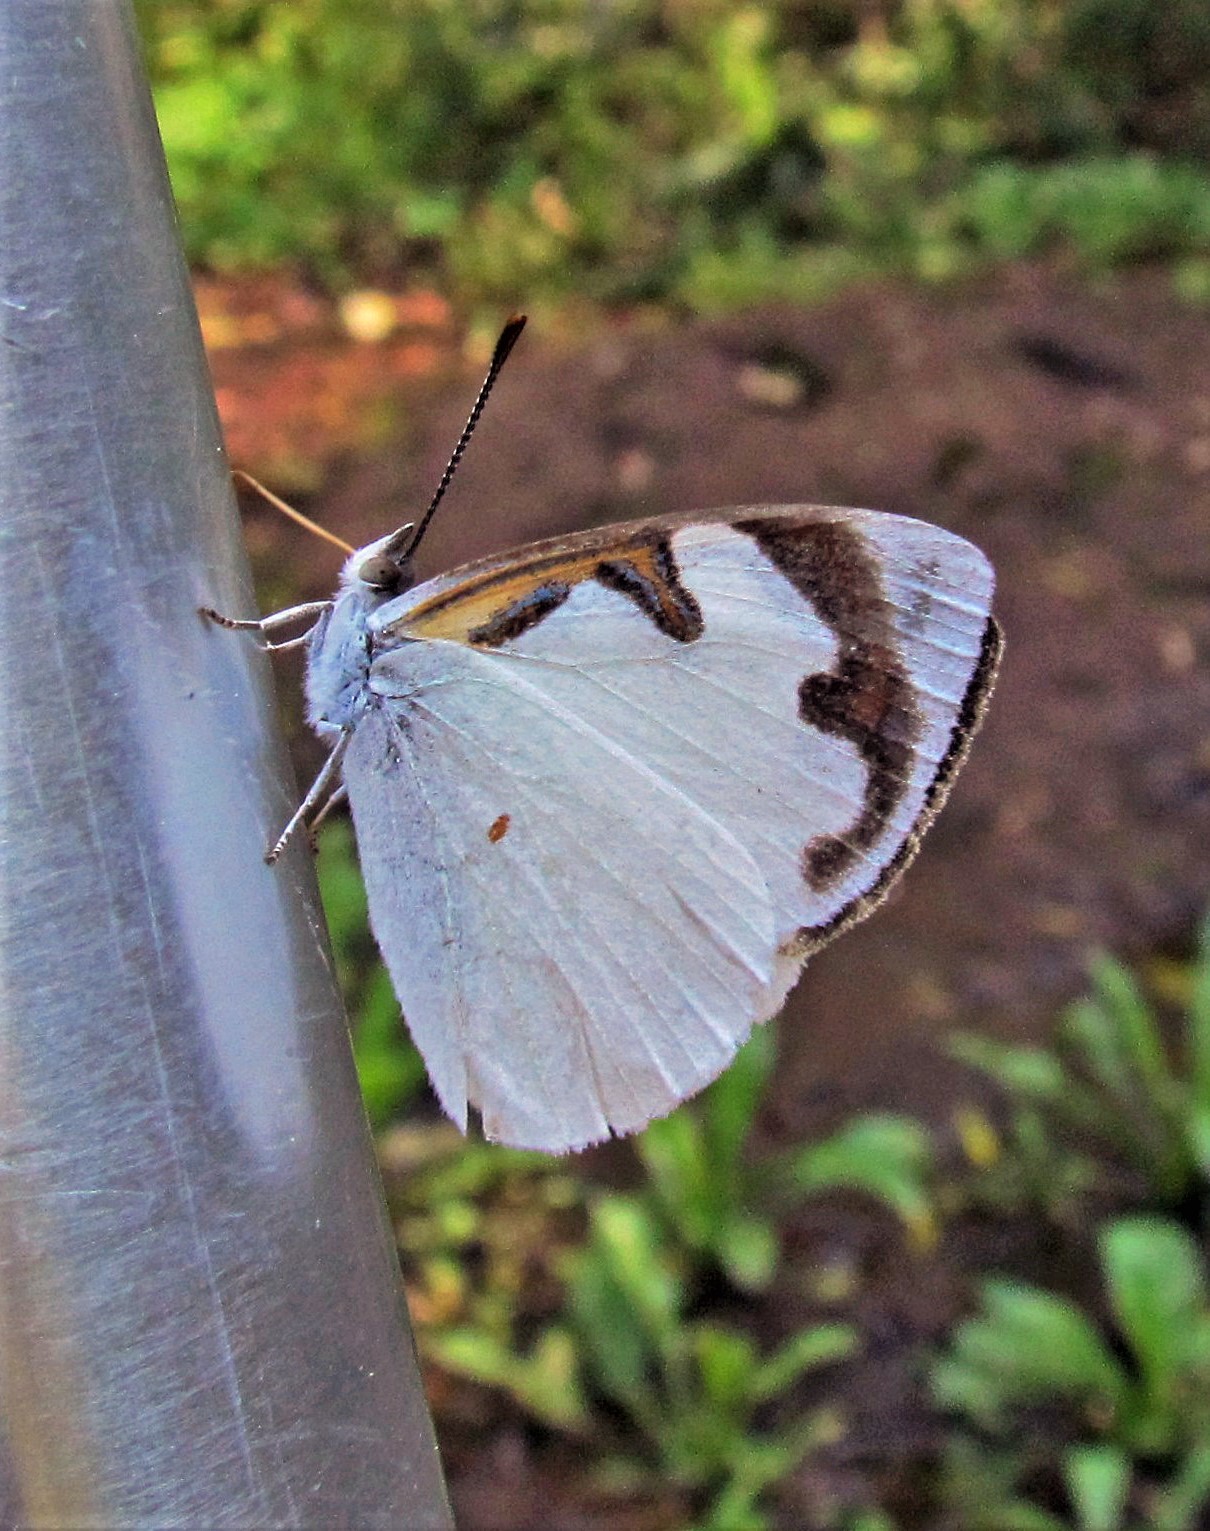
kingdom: Animalia
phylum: Arthropoda
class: Insecta
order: Lepidoptera
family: Nymphalidae
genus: Dynamine
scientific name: Dynamine myrrhina
